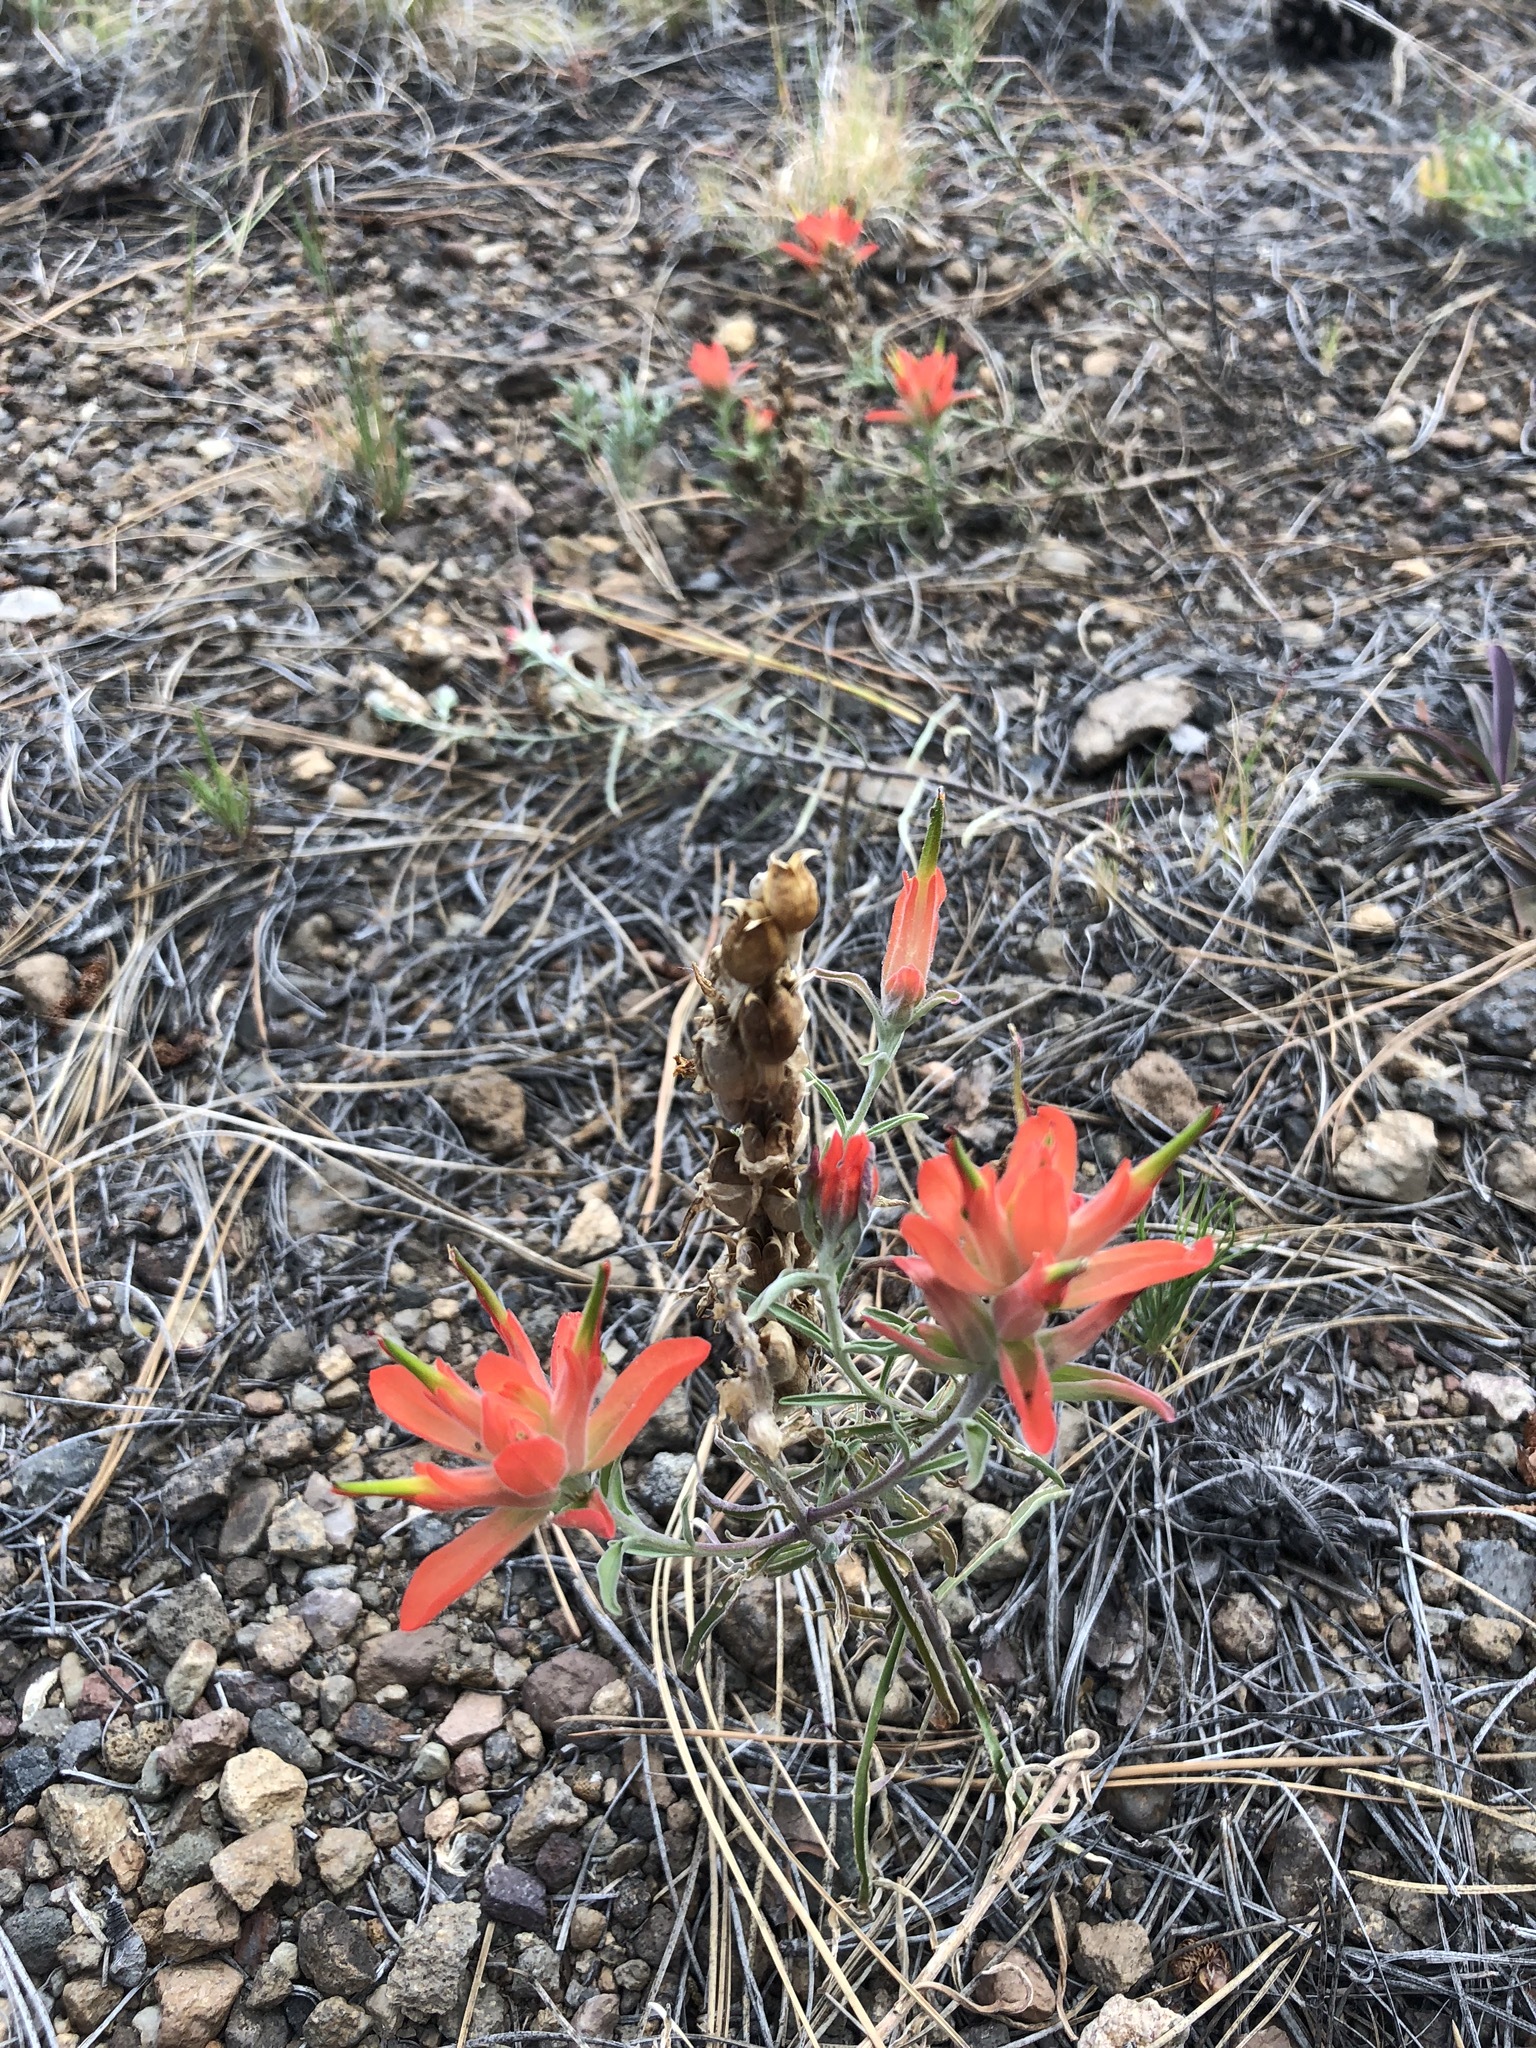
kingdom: Plantae
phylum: Tracheophyta
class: Magnoliopsida
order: Lamiales
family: Orobanchaceae
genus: Castilleja
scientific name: Castilleja integra
